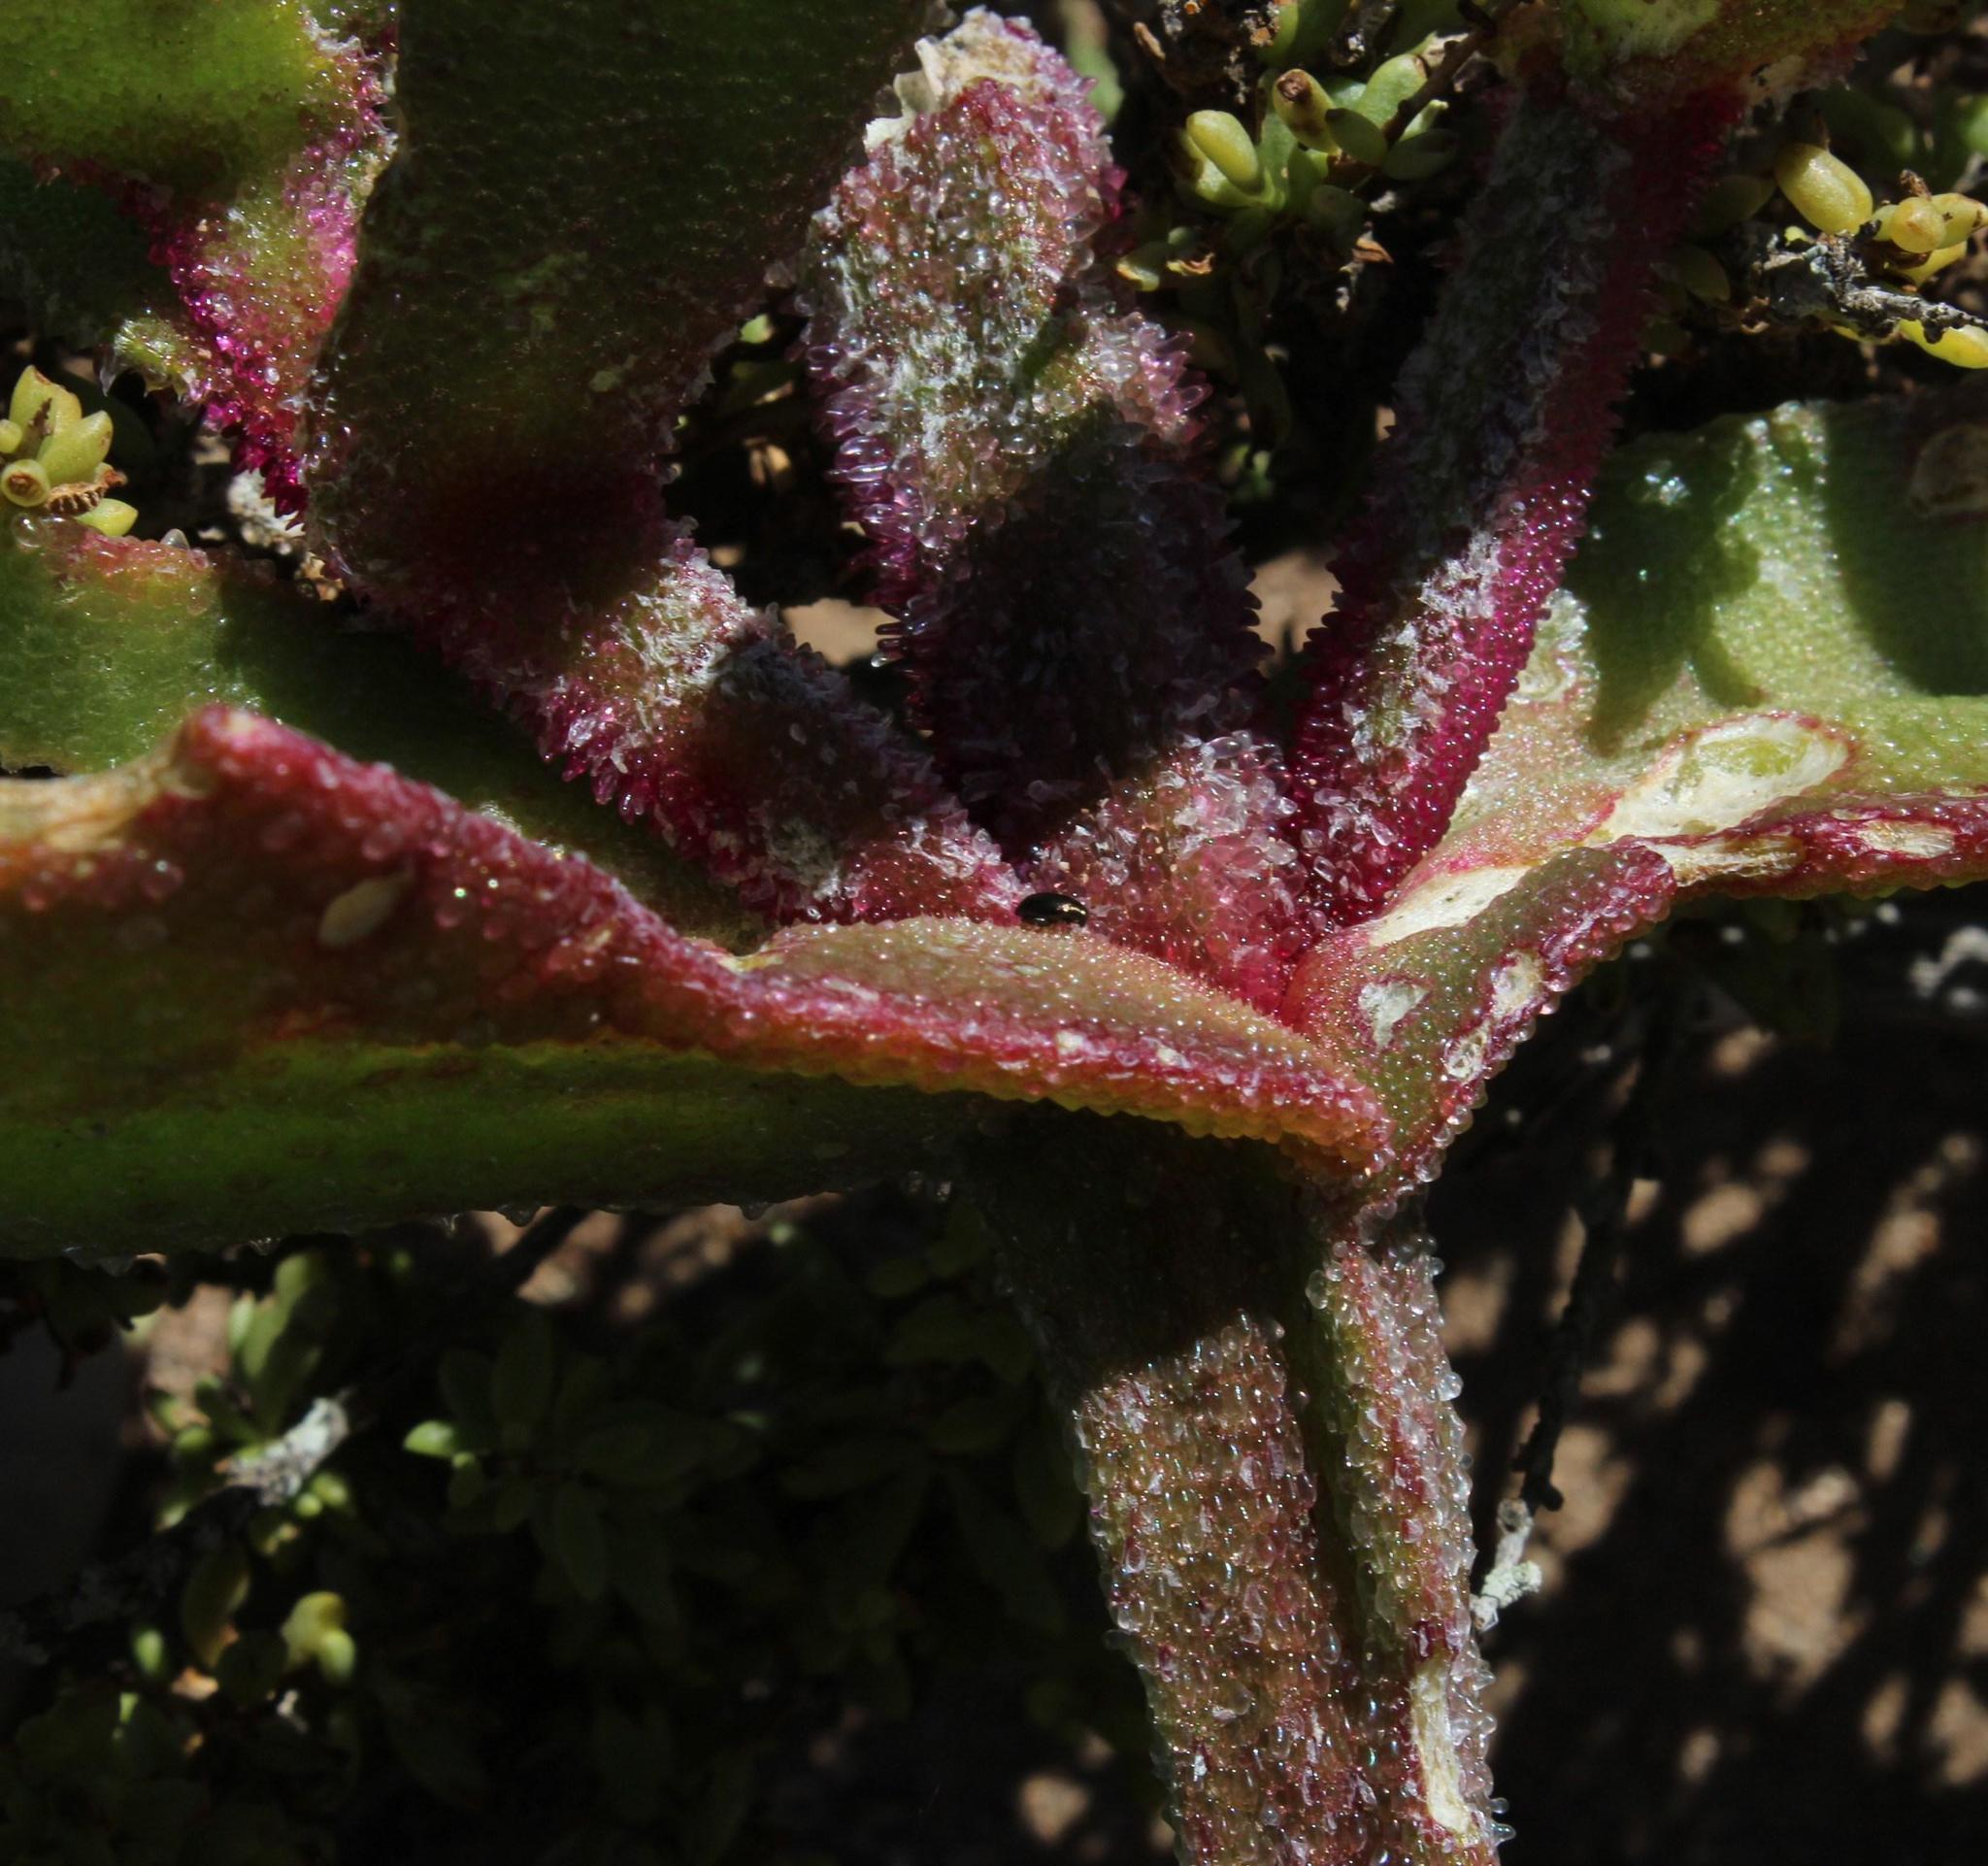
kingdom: Plantae
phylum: Tracheophyta
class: Magnoliopsida
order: Caryophyllales
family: Aizoaceae
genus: Mesembryanthemum
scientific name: Mesembryanthemum guerichianum
